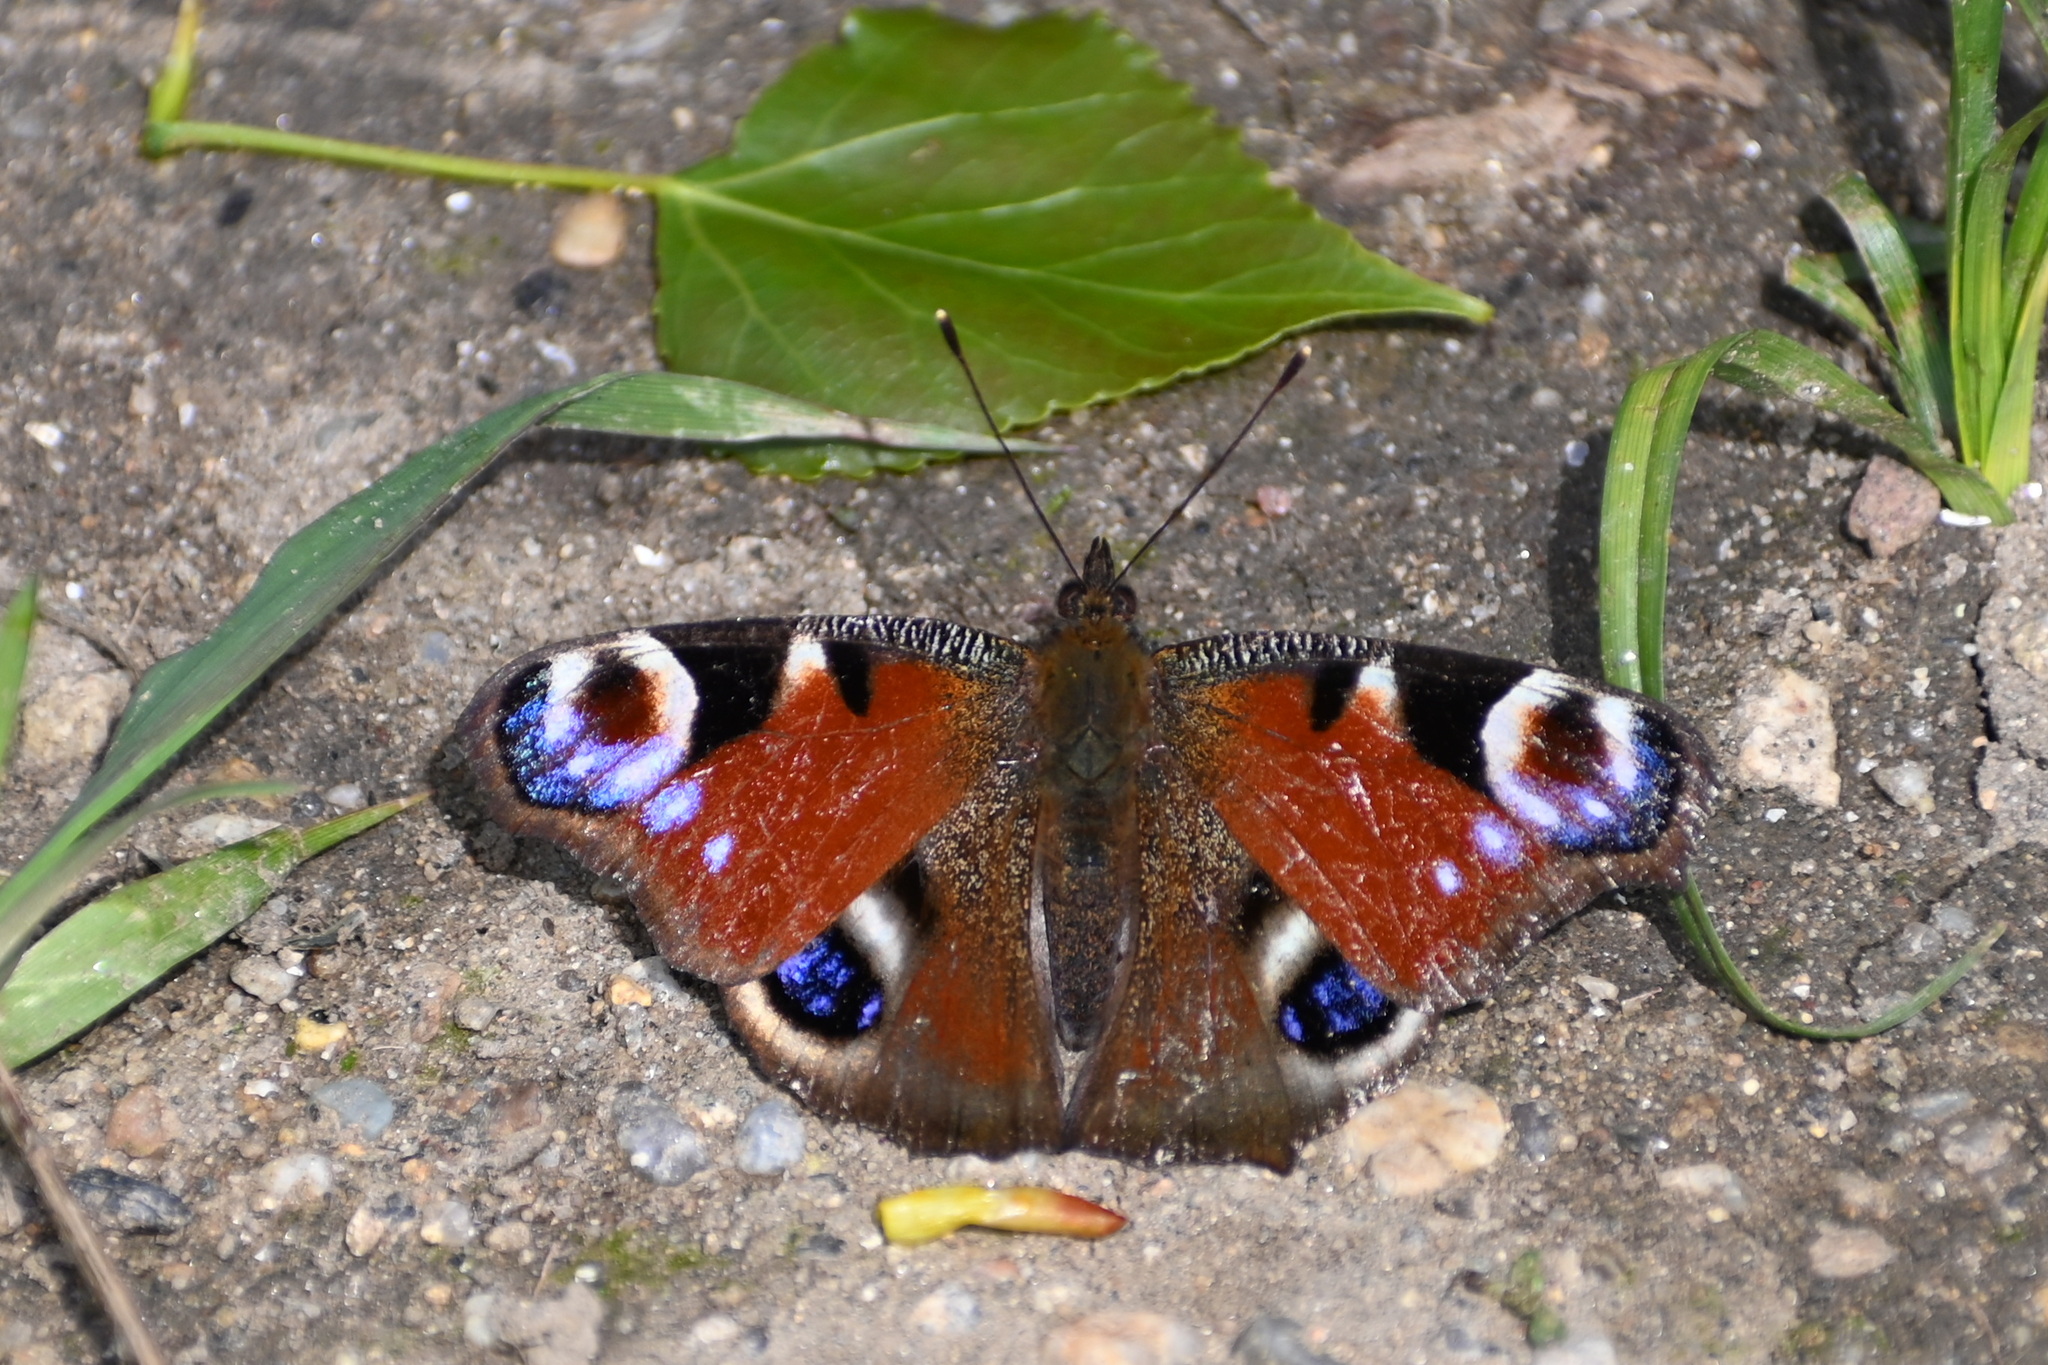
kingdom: Animalia
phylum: Arthropoda
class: Insecta
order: Lepidoptera
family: Nymphalidae
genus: Aglais
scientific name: Aglais io
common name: Peacock
